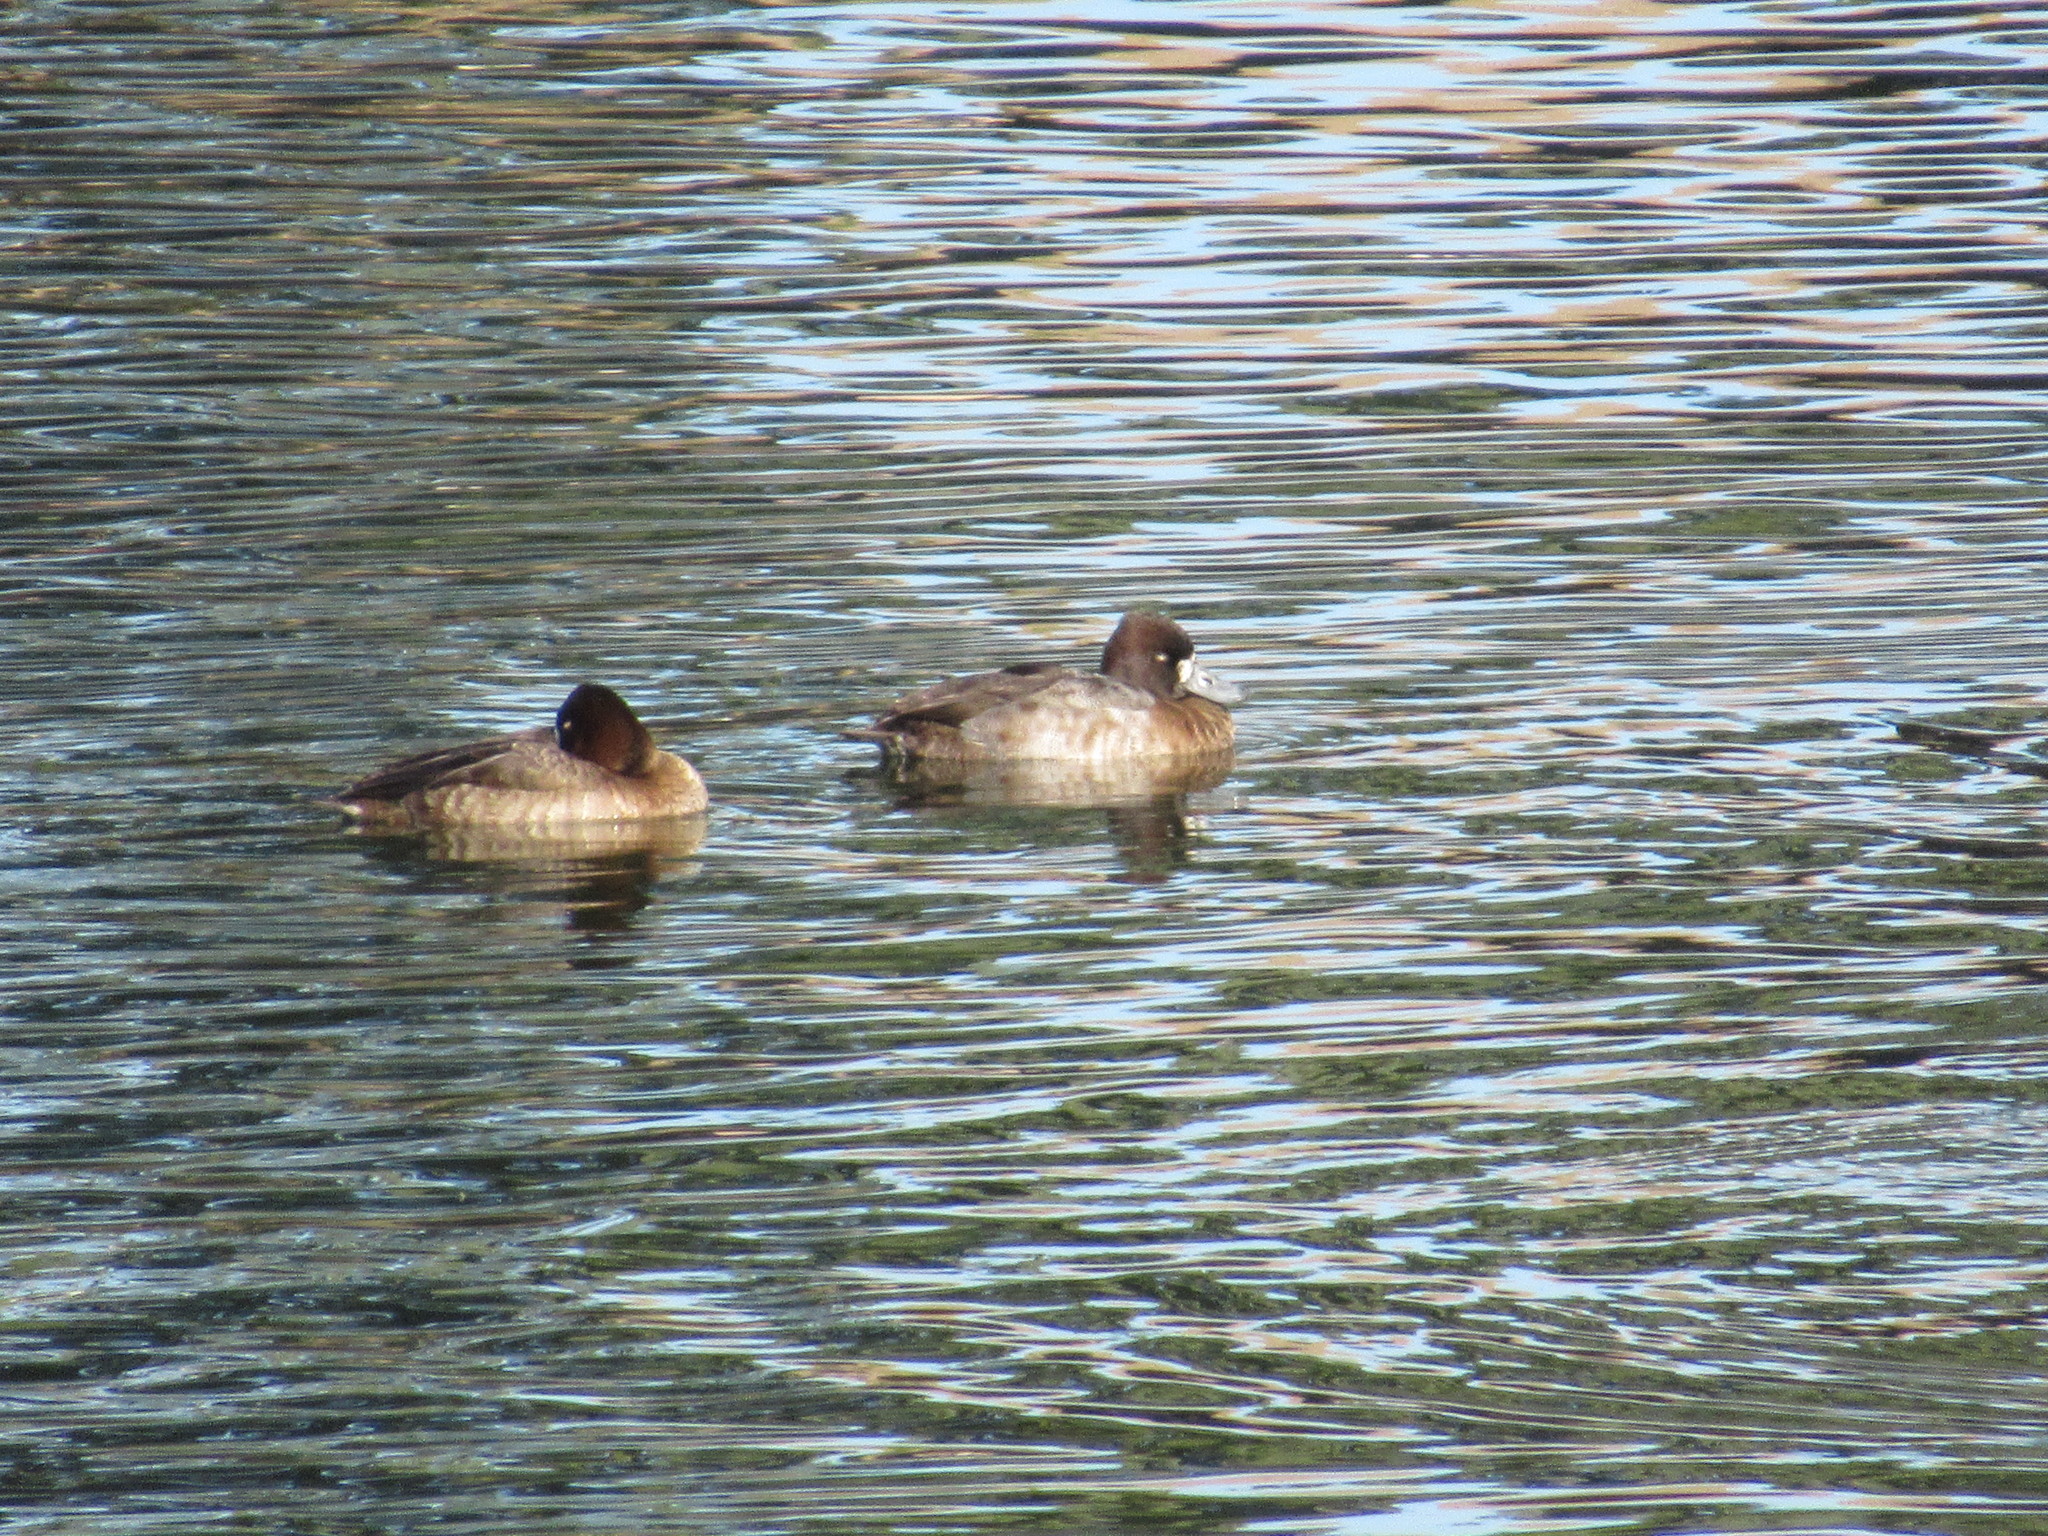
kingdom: Animalia
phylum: Chordata
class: Aves
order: Anseriformes
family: Anatidae
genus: Aythya
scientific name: Aythya affinis
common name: Lesser scaup
